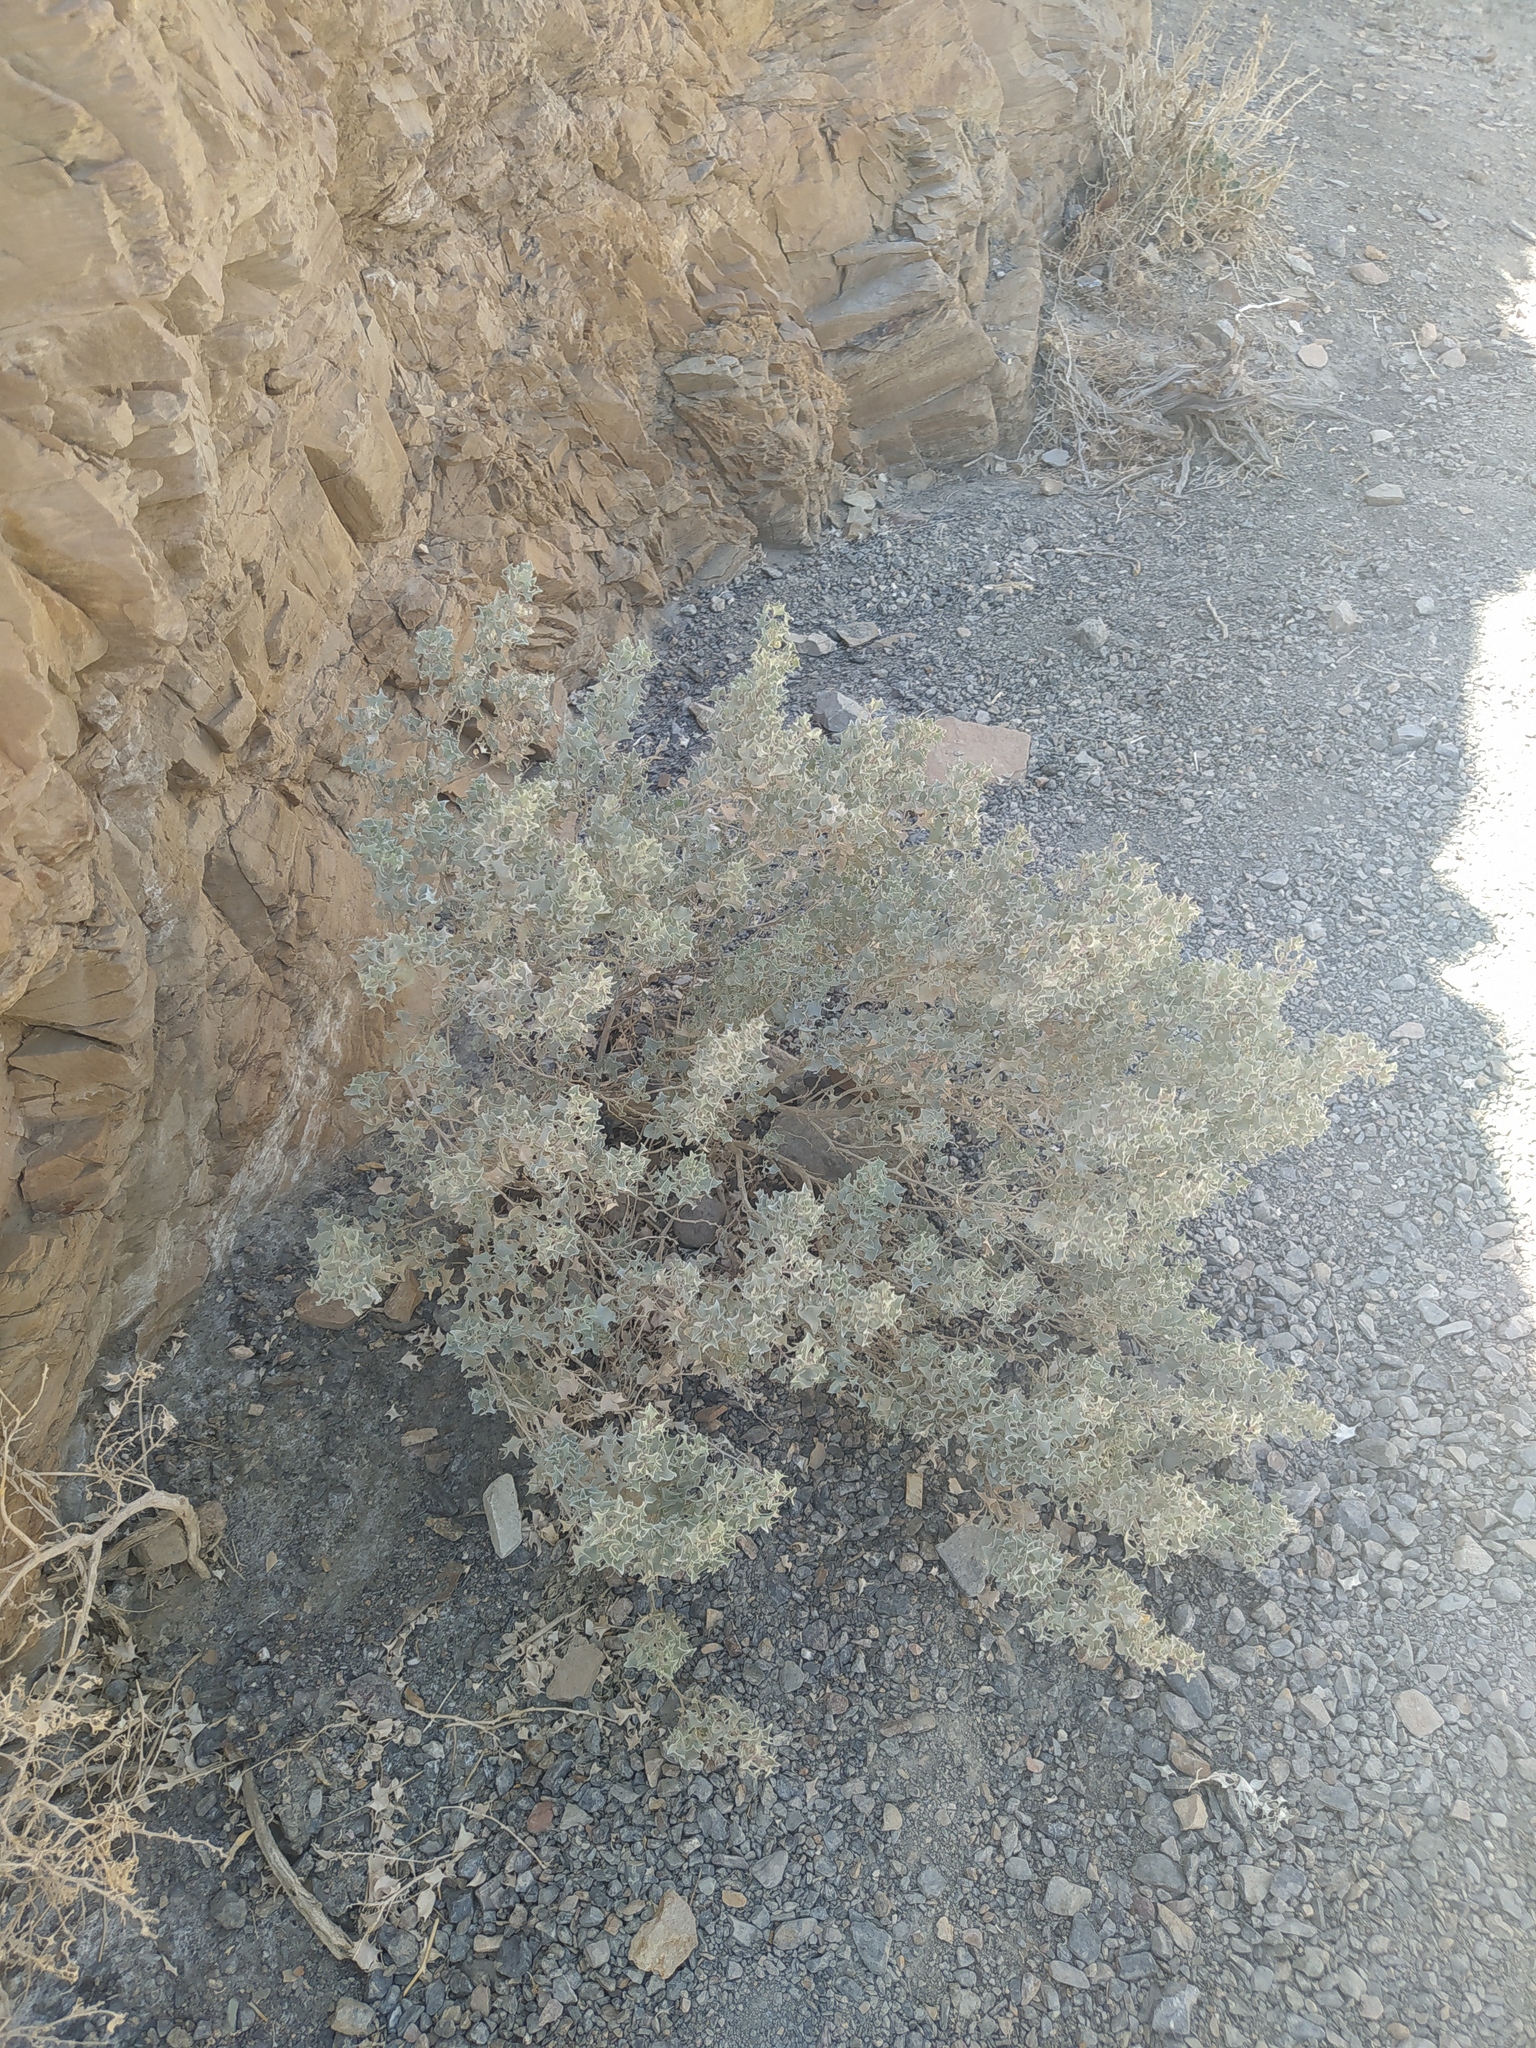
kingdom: Plantae
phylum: Tracheophyta
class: Magnoliopsida
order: Caryophyllales
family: Amaranthaceae
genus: Atriplex
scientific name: Atriplex hymenelytra
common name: Desert-holly
